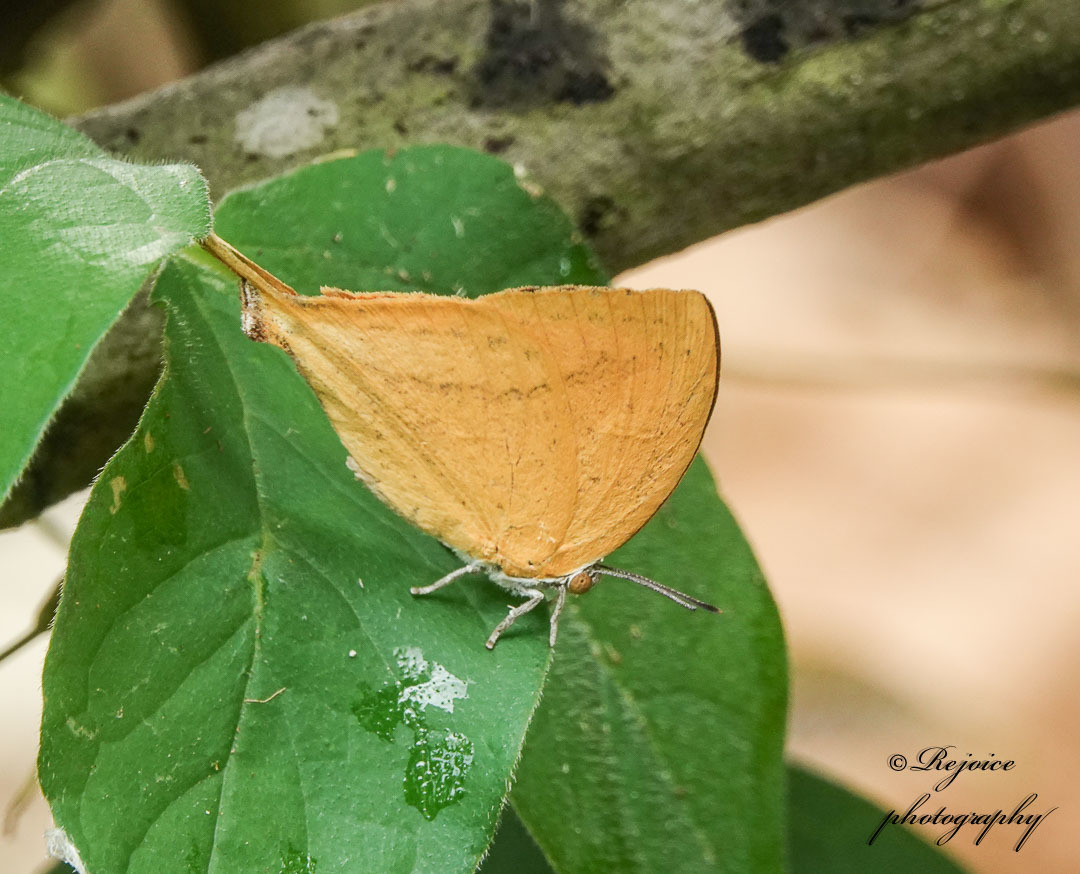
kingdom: Animalia
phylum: Arthropoda
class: Insecta
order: Lepidoptera
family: Lycaenidae
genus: Loxura
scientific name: Loxura atymnus
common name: Common yamfly
